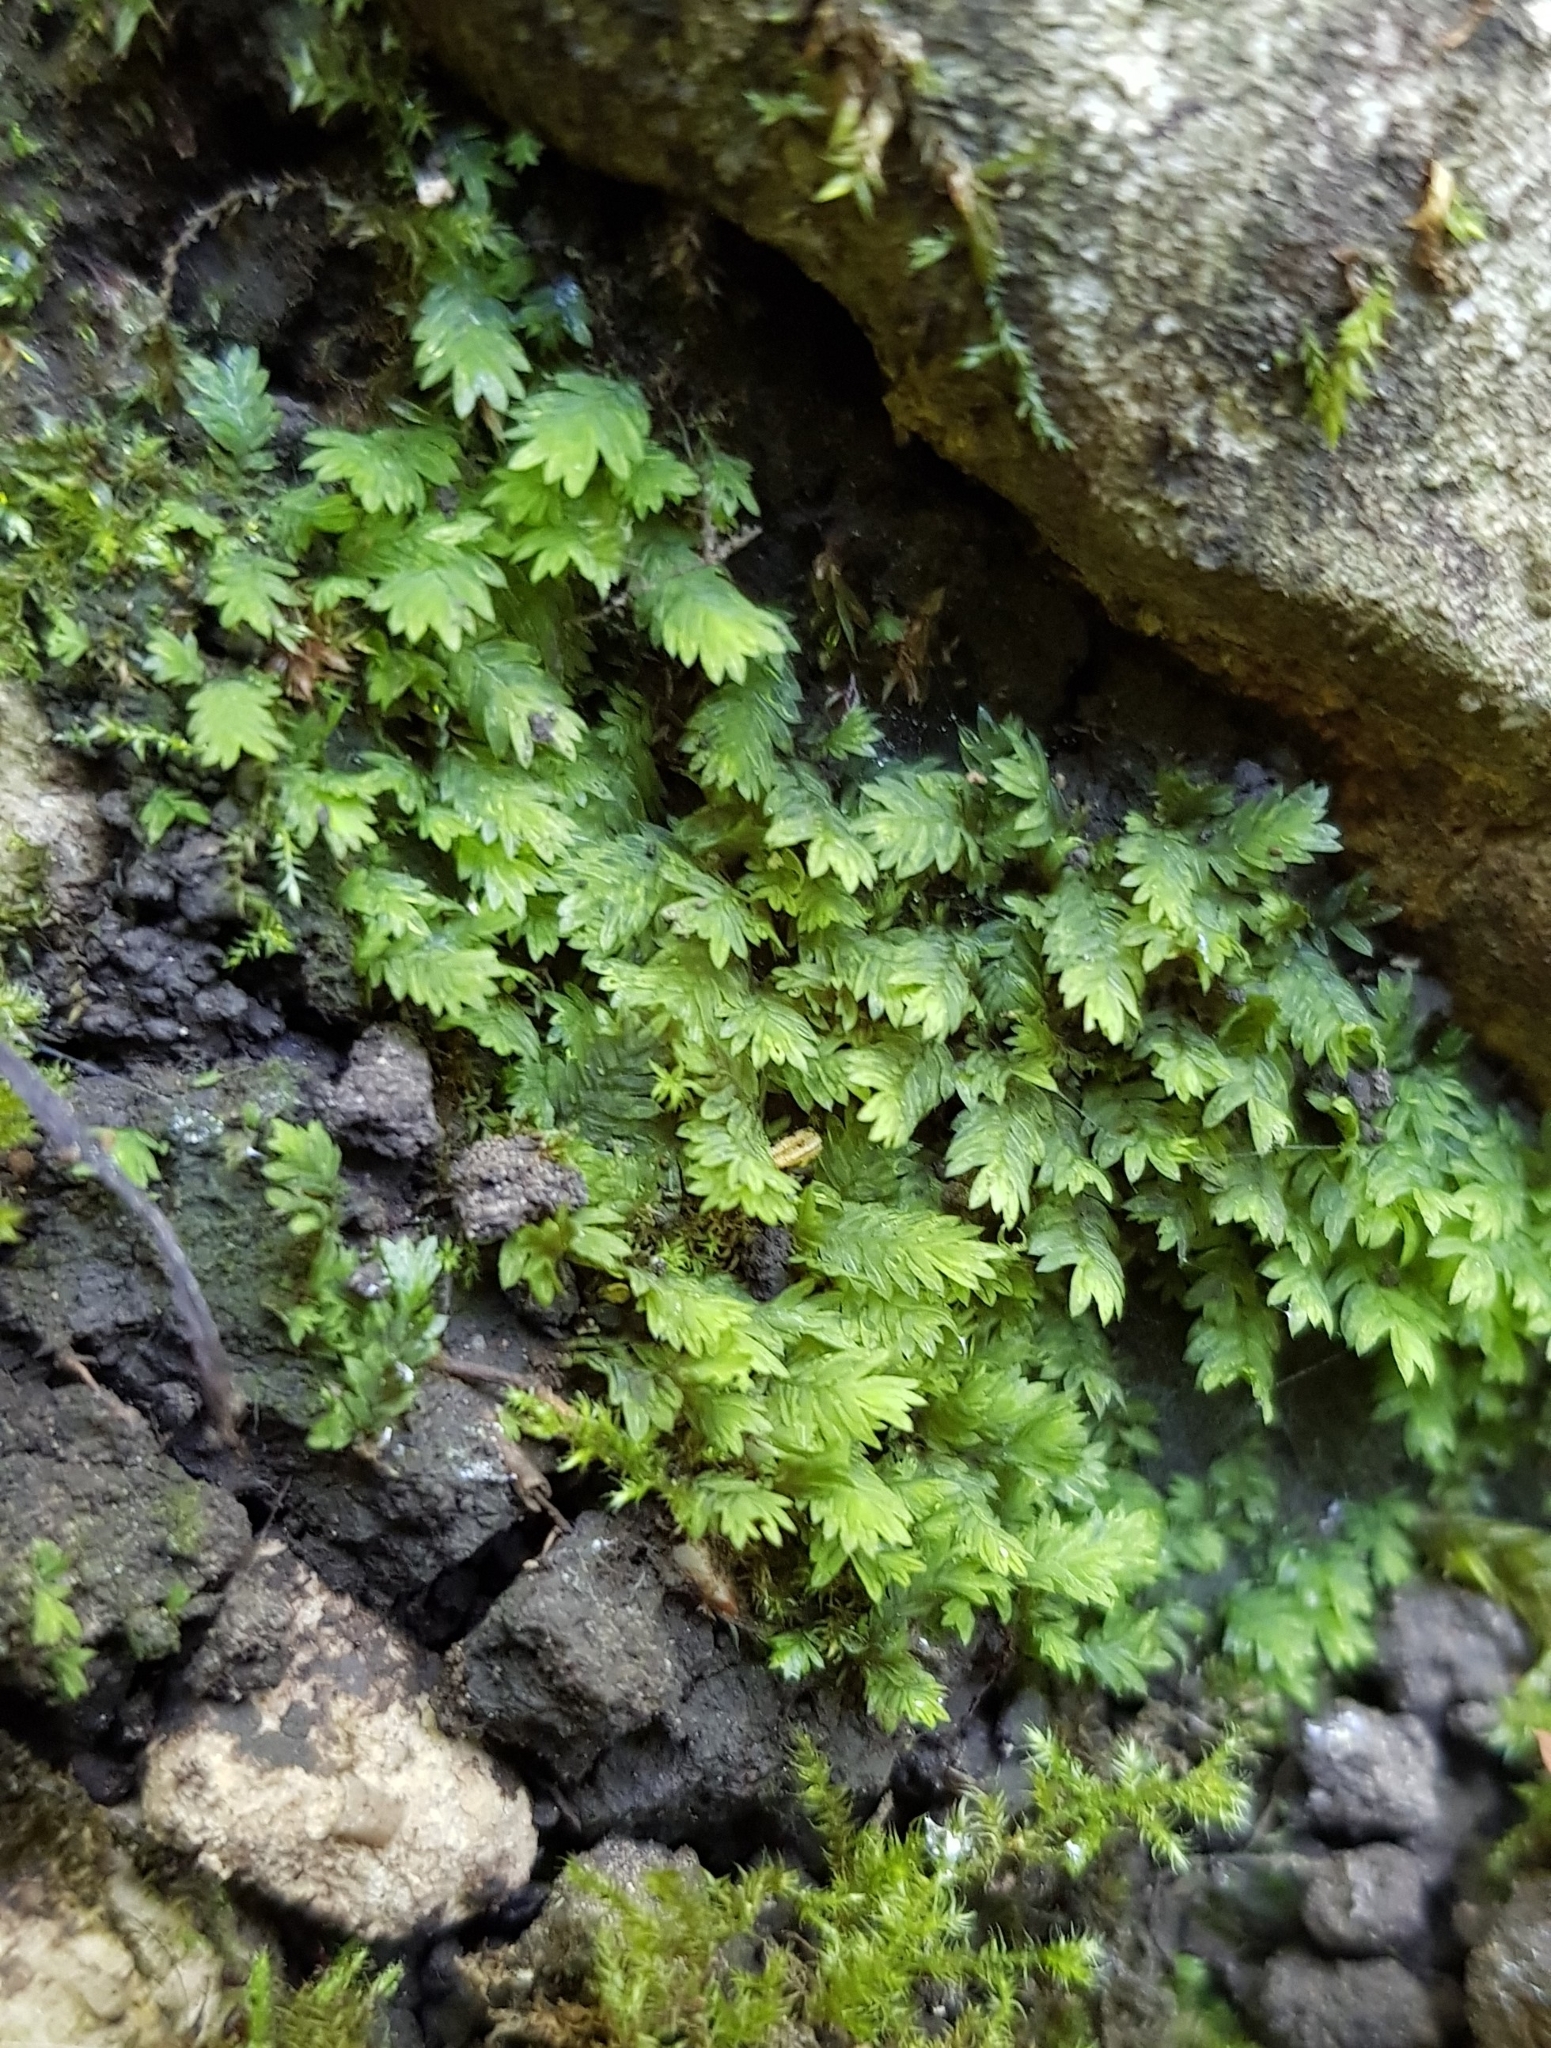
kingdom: Plantae
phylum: Bryophyta
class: Bryopsida
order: Dicranales
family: Fissidentaceae
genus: Fissidens
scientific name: Fissidens bryoides
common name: Lesser pocket moss
